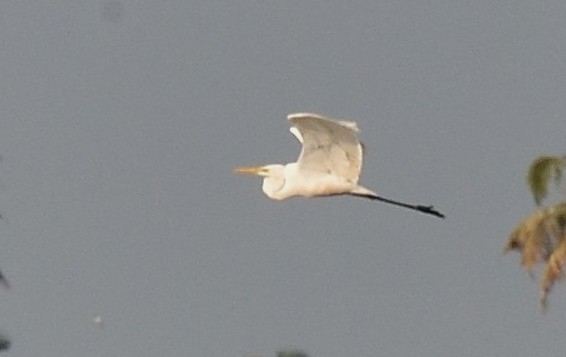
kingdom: Animalia
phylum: Chordata
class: Aves
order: Pelecaniformes
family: Ardeidae
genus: Ardea
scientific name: Ardea alba
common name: Great egret
